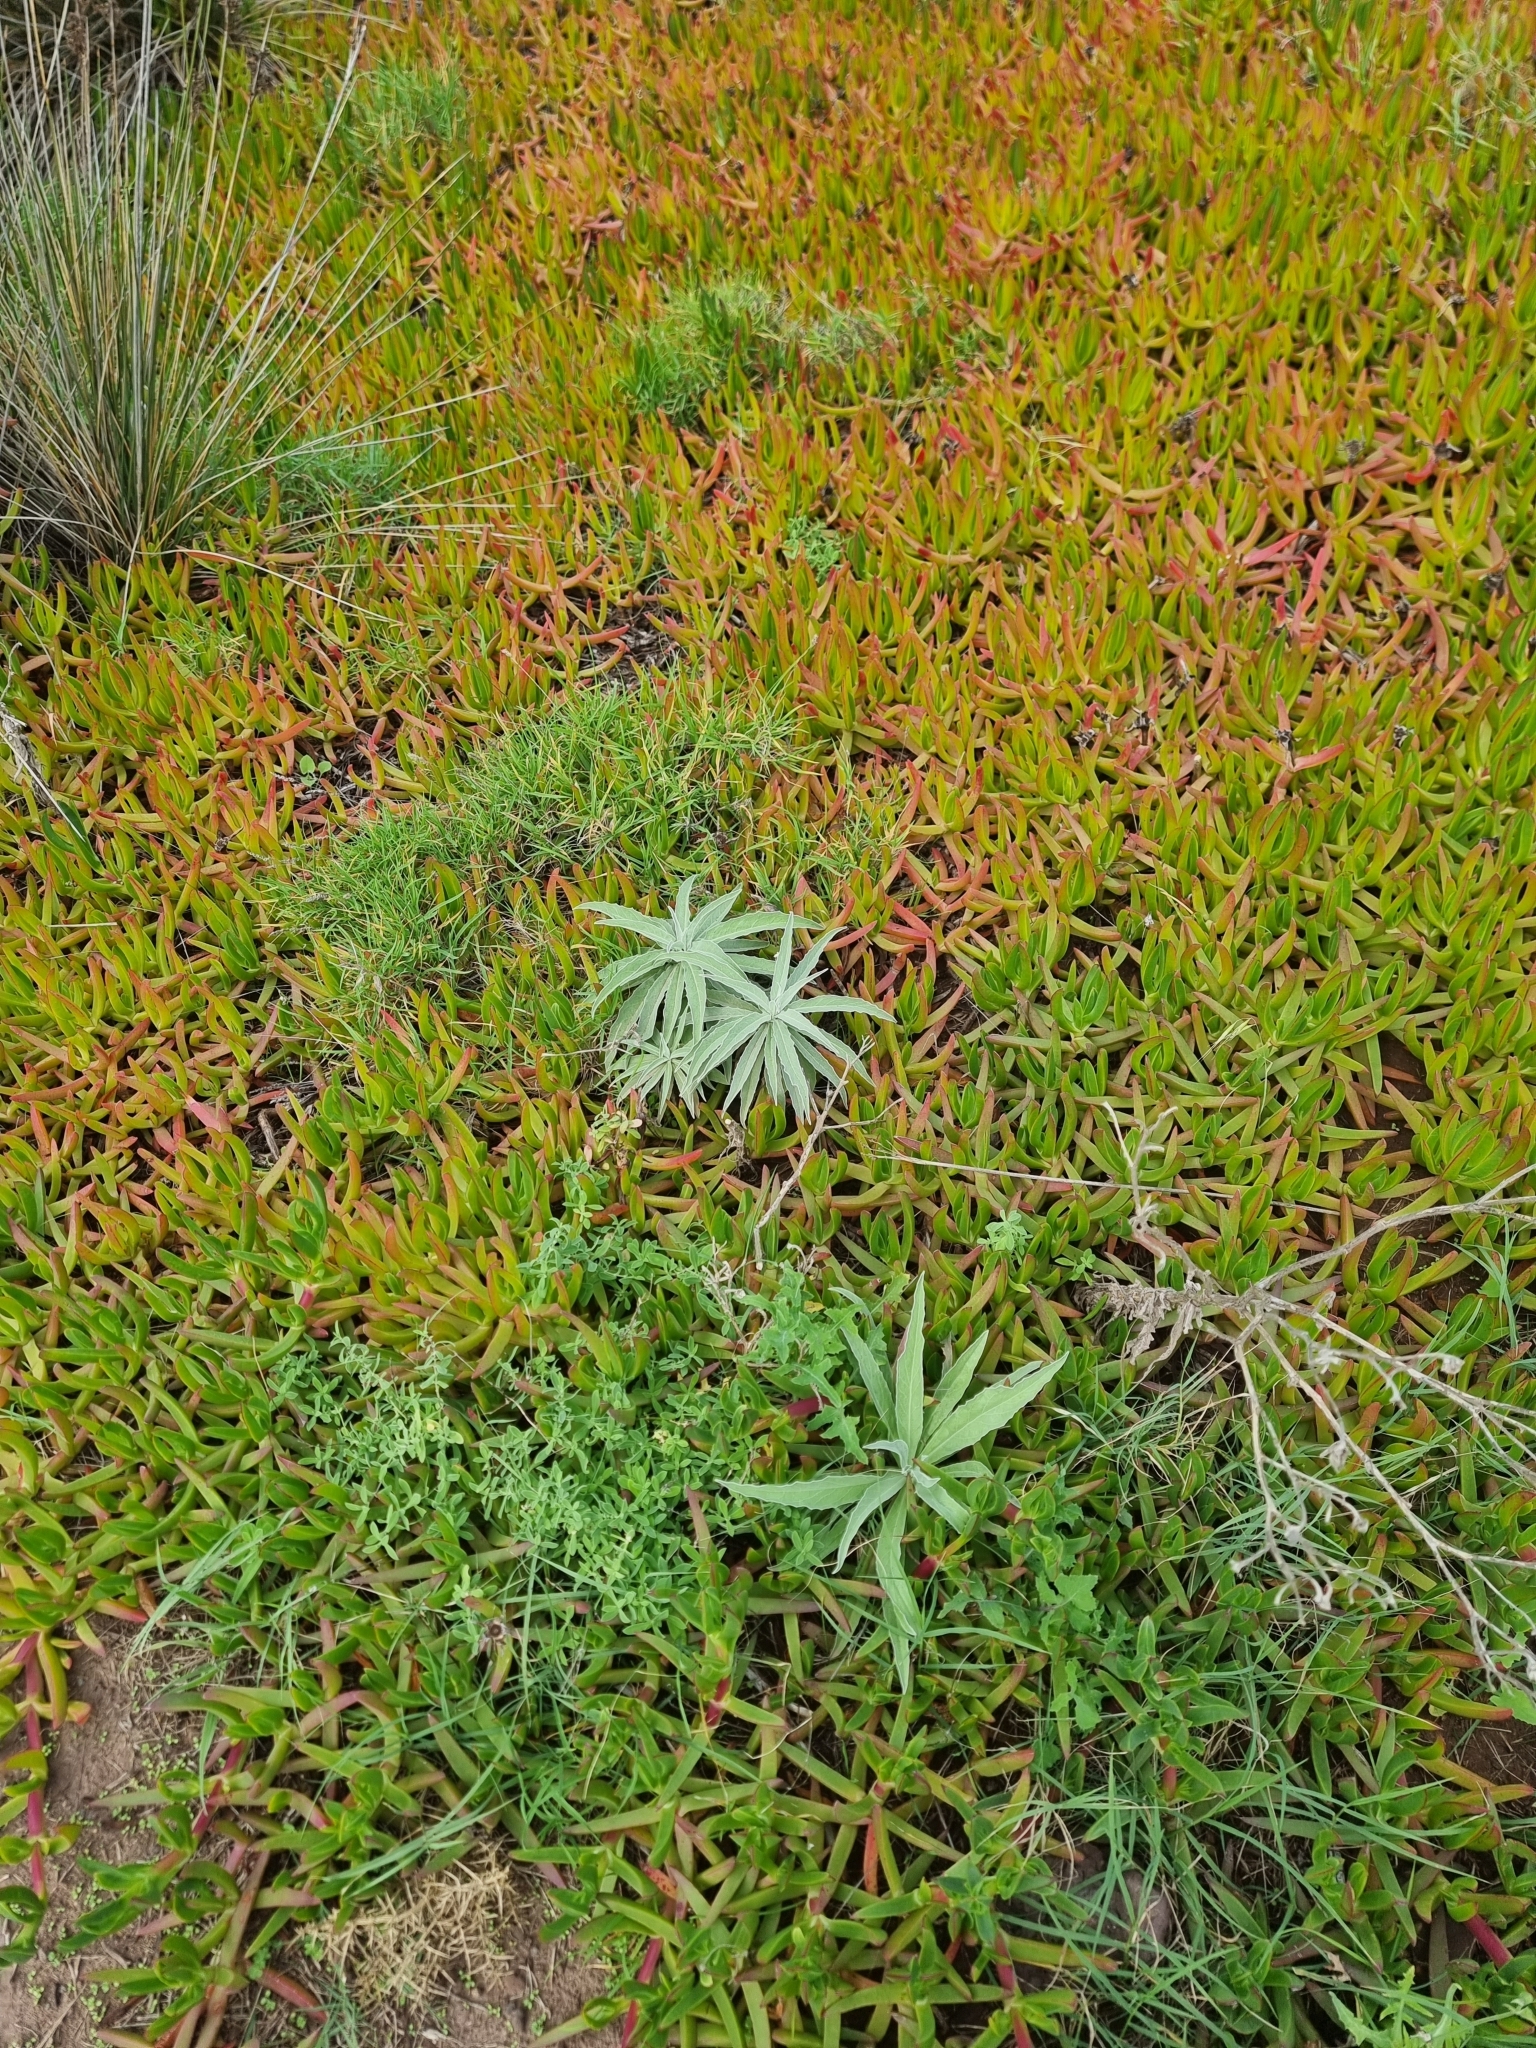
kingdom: Plantae
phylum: Tracheophyta
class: Magnoliopsida
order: Asterales
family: Asteraceae
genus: Andryala
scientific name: Andryala glandulosa
